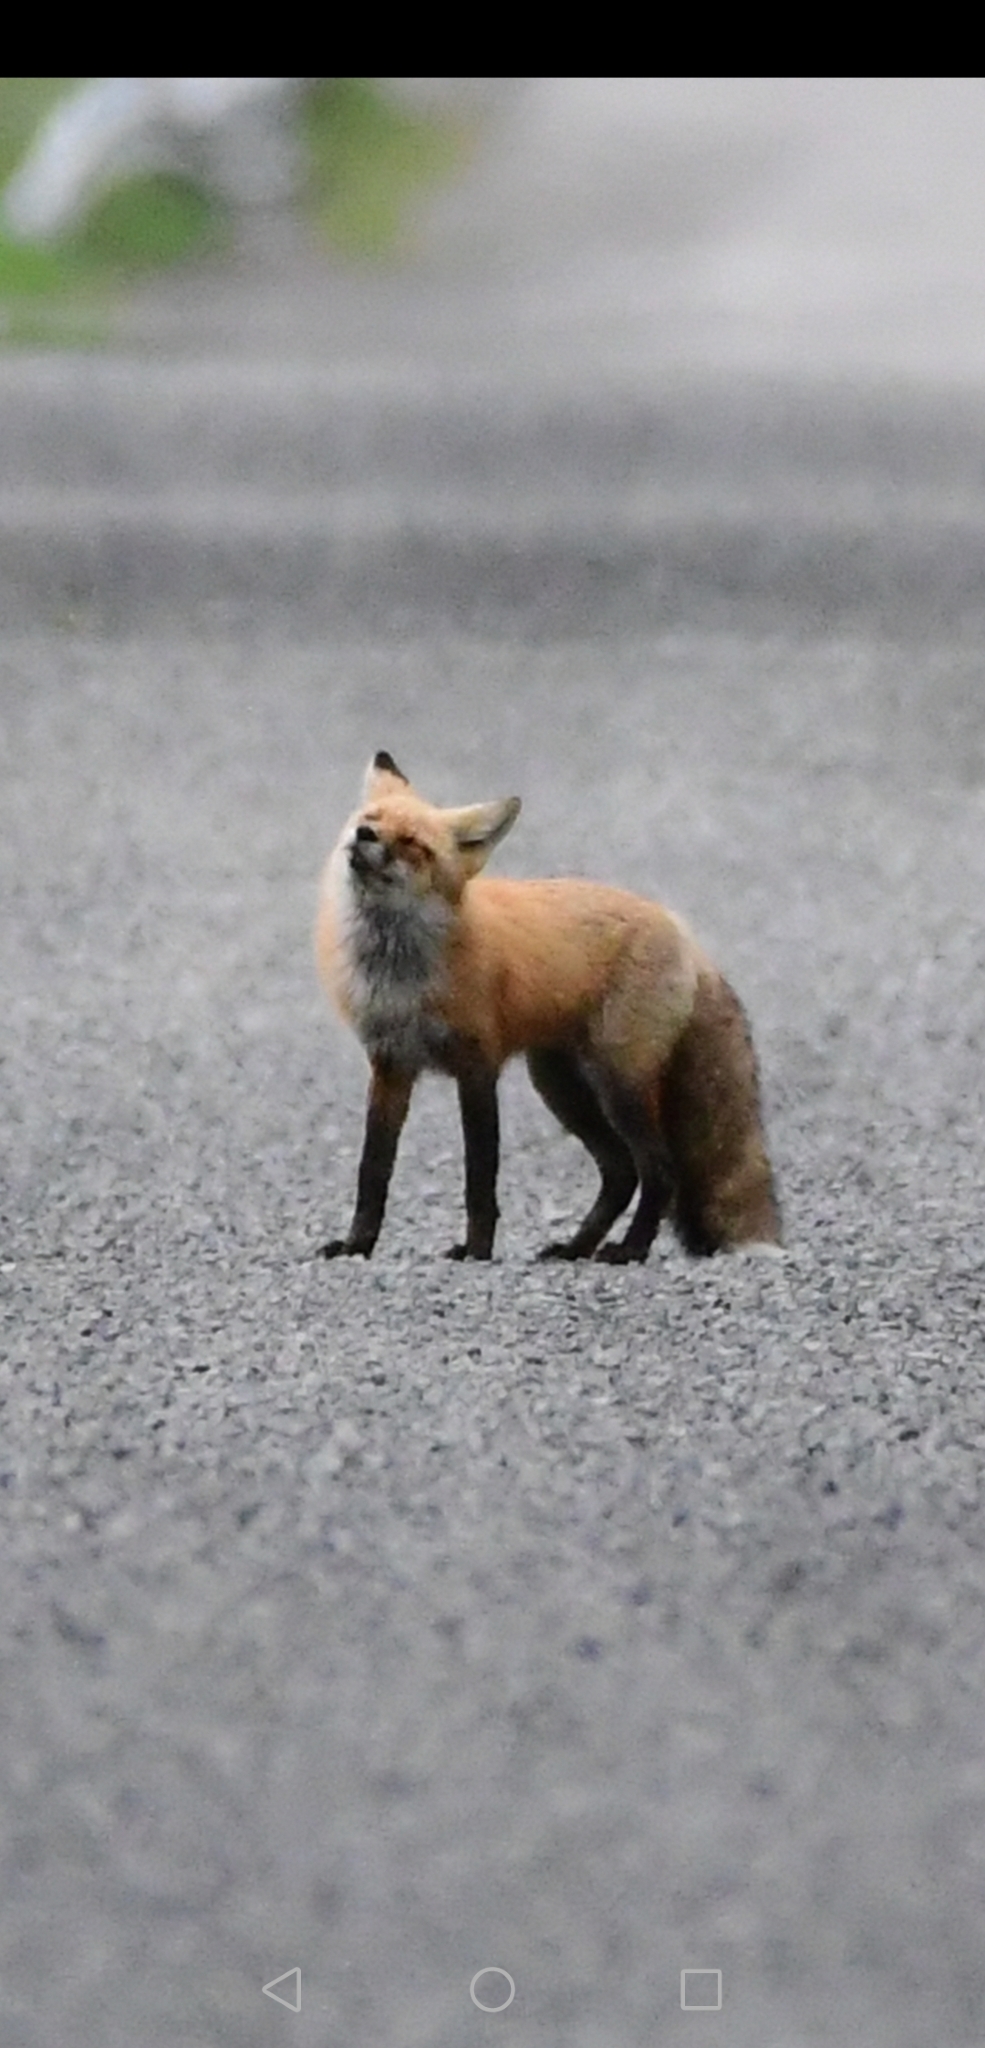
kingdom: Animalia
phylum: Chordata
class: Mammalia
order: Carnivora
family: Canidae
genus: Vulpes
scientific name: Vulpes vulpes
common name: Red fox
